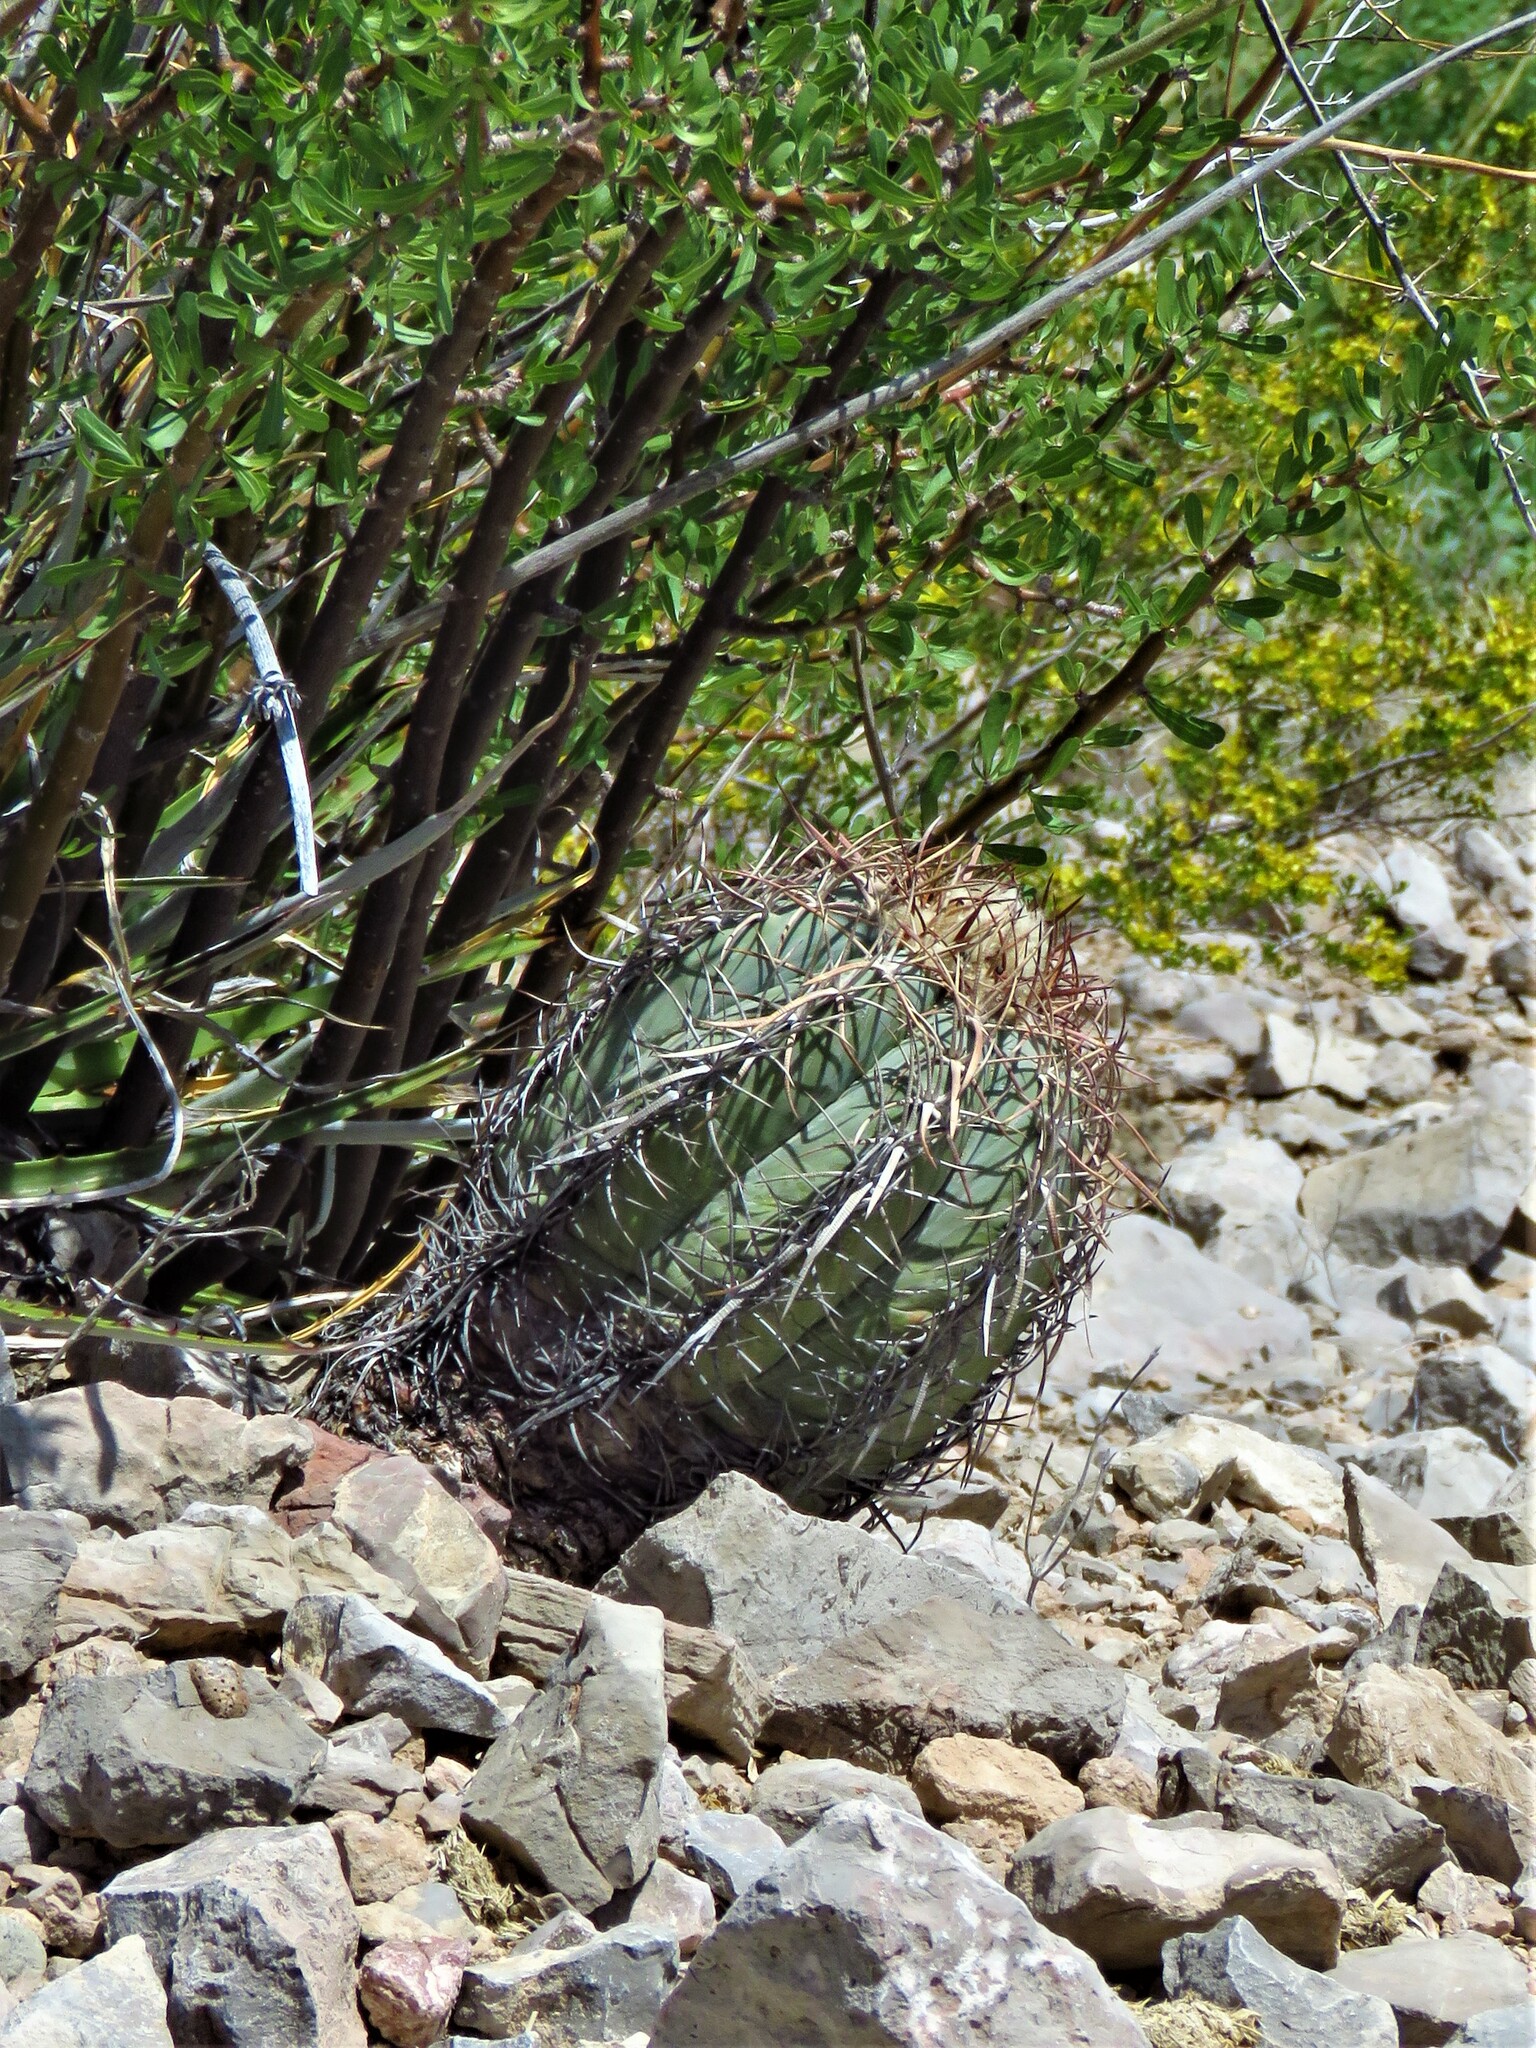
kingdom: Plantae
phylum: Tracheophyta
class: Magnoliopsida
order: Caryophyllales
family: Cactaceae
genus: Echinocactus
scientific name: Echinocactus horizonthalonius
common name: Devilshead
